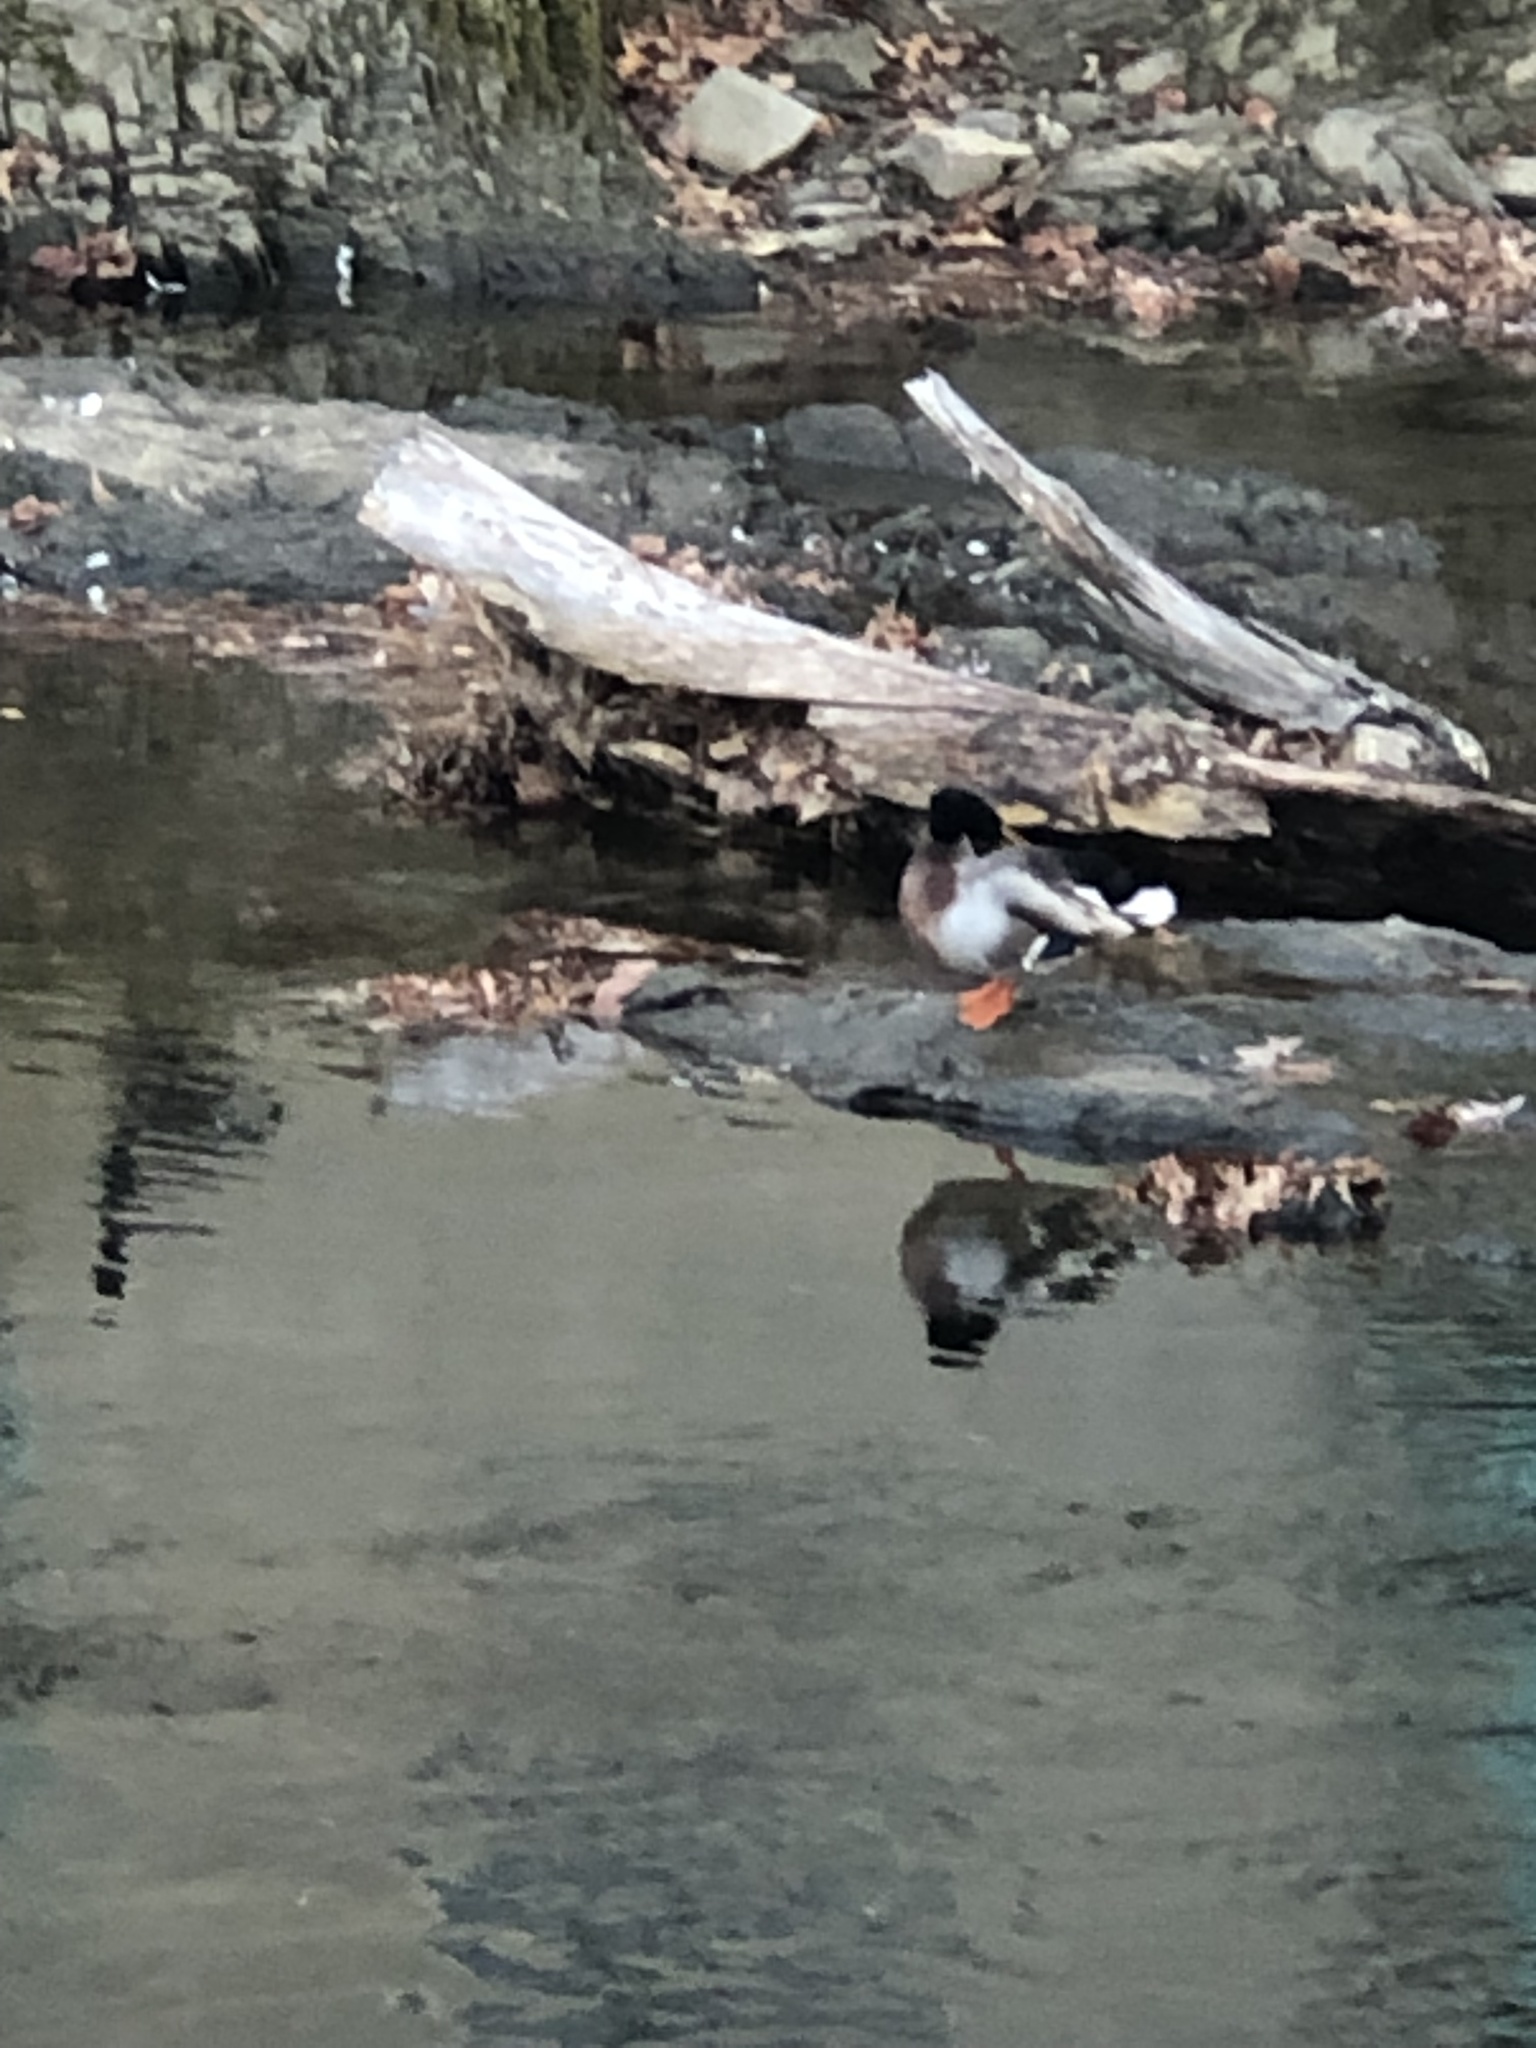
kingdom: Animalia
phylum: Chordata
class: Aves
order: Anseriformes
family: Anatidae
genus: Anas
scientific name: Anas platyrhynchos
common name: Mallard
